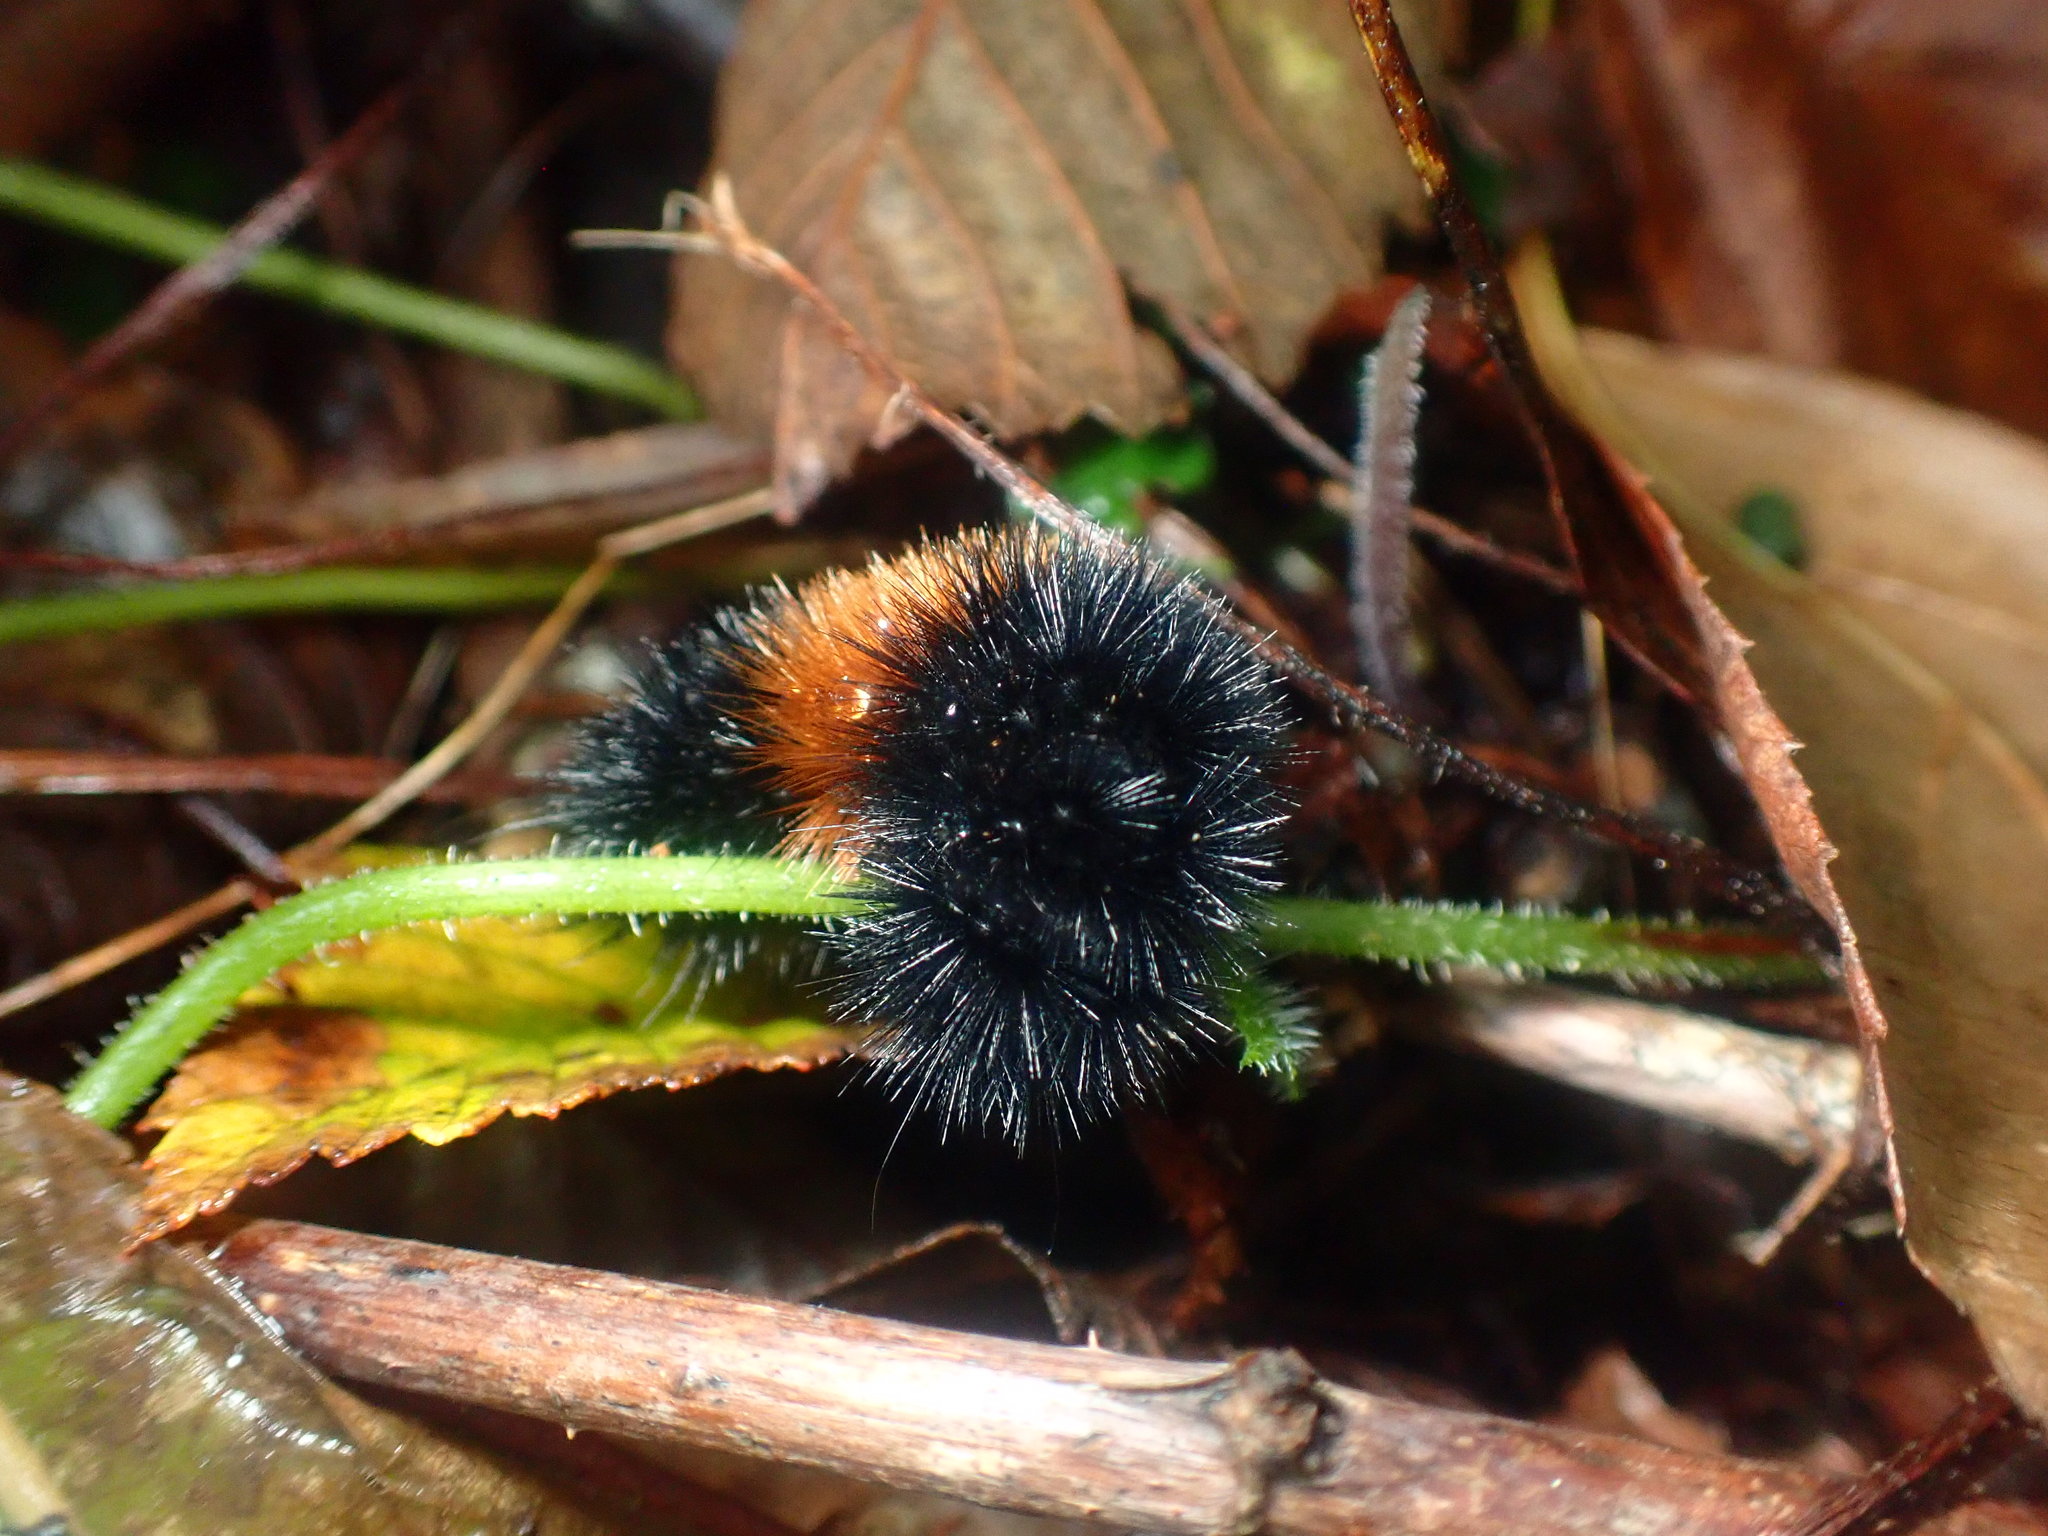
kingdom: Animalia
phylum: Arthropoda
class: Insecta
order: Lepidoptera
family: Erebidae
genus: Pyrrharctia
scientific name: Pyrrharctia isabella
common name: Isabella tiger moth
